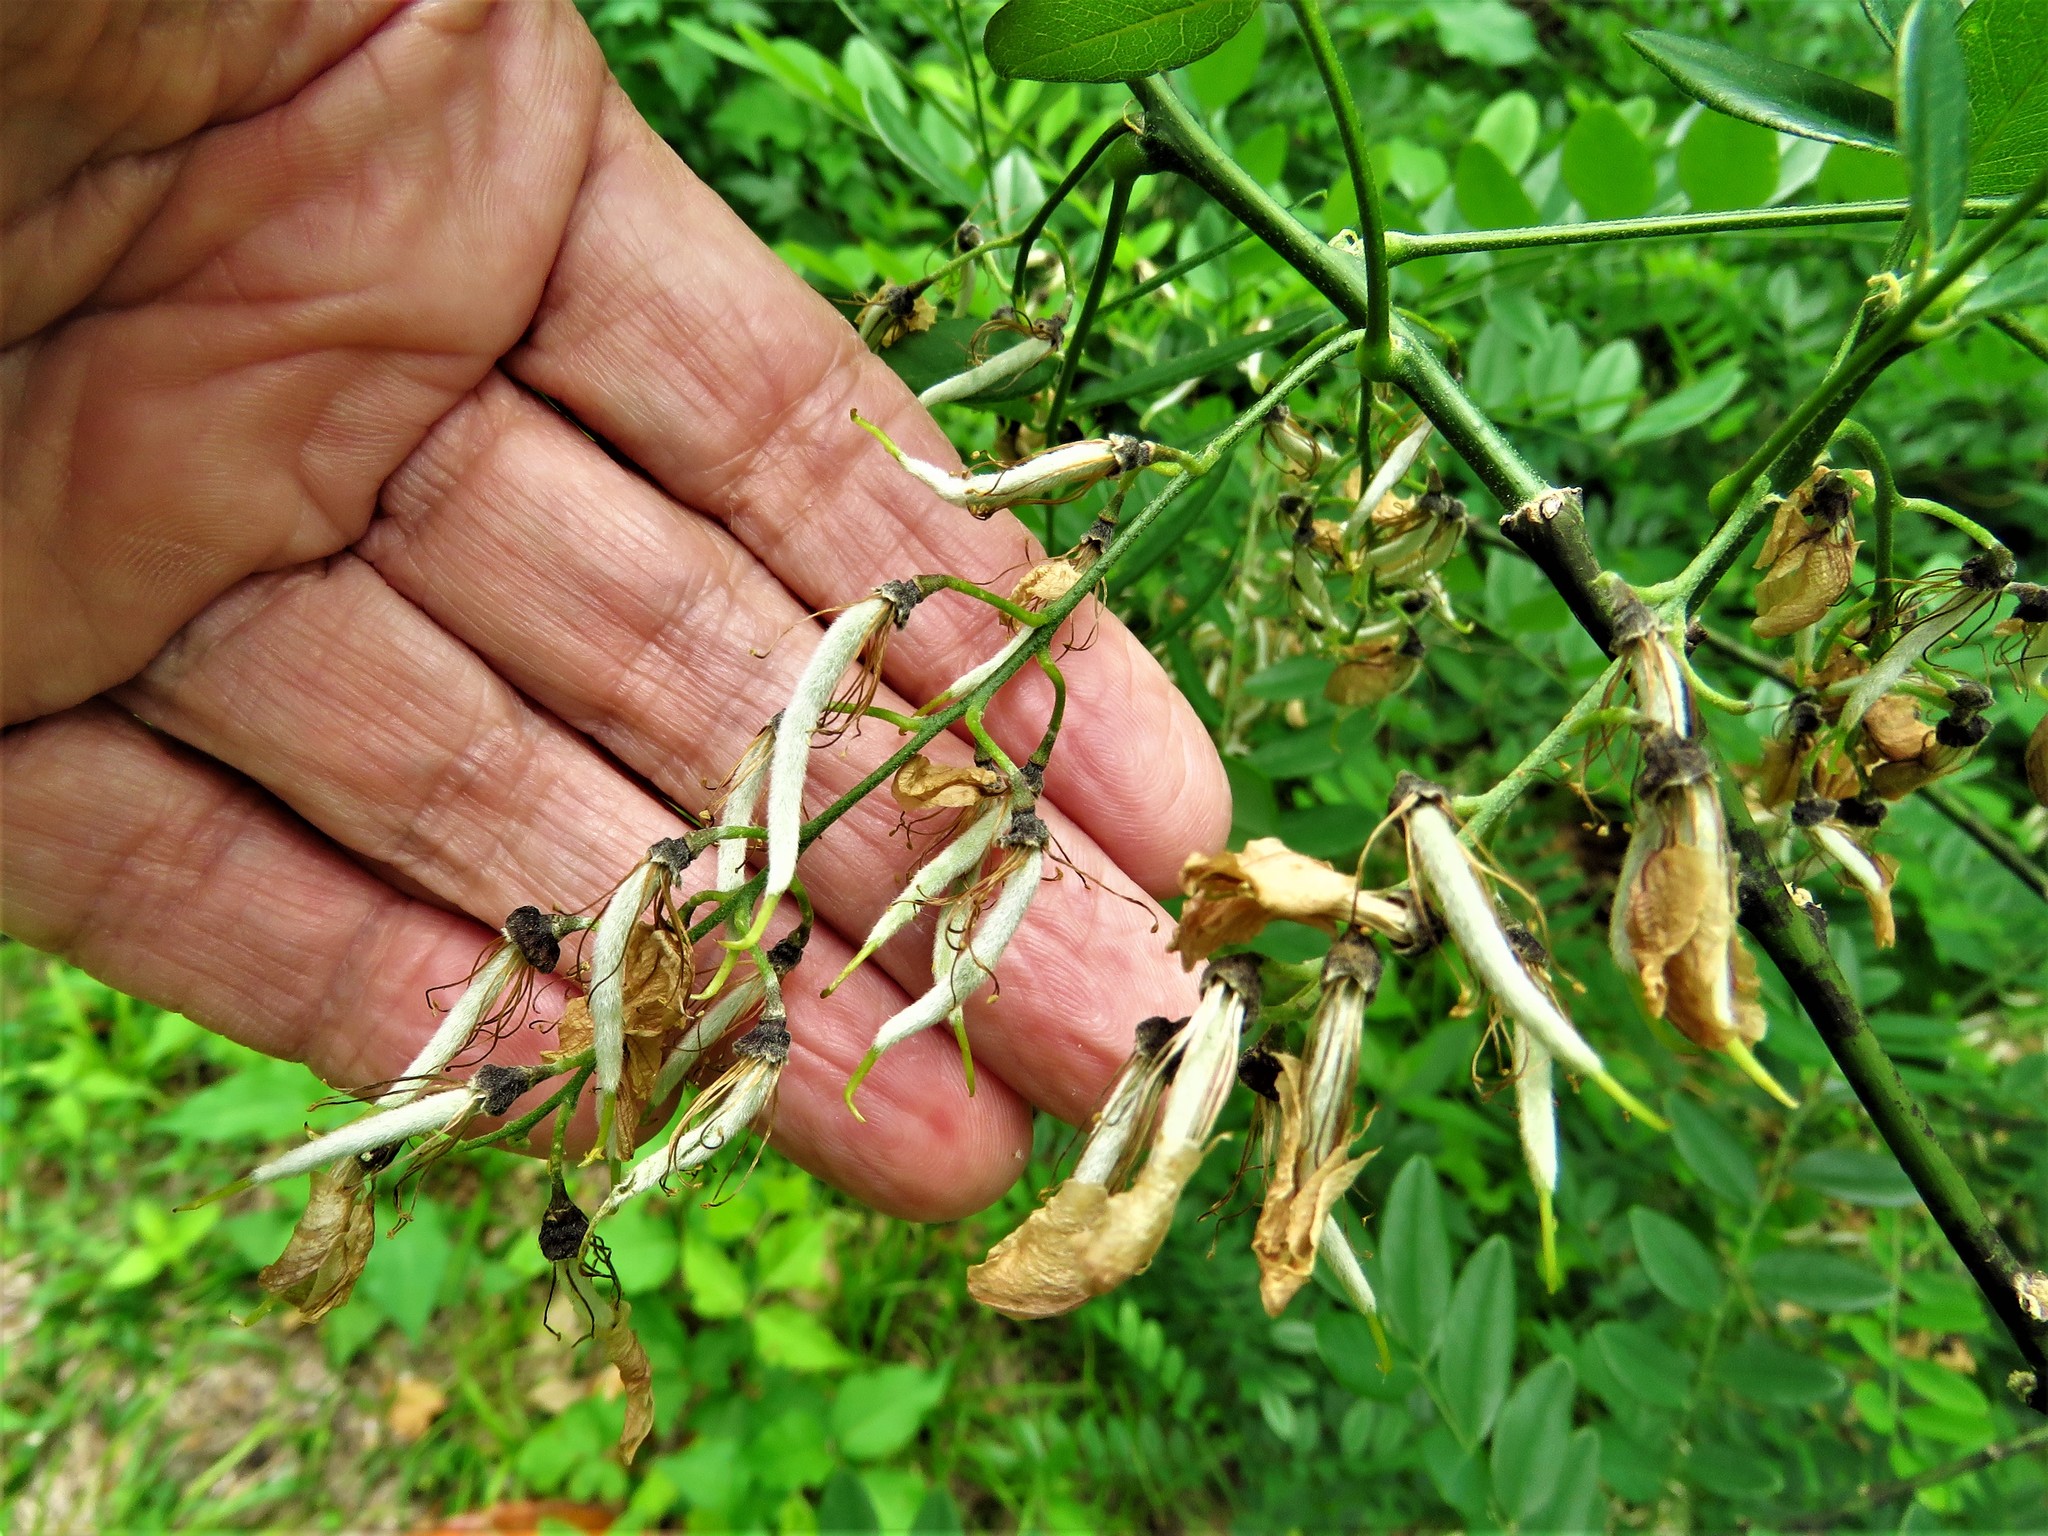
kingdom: Plantae
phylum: Tracheophyta
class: Magnoliopsida
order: Fabales
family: Fabaceae
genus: Styphnolobium
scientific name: Styphnolobium affine
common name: Texas sophora
